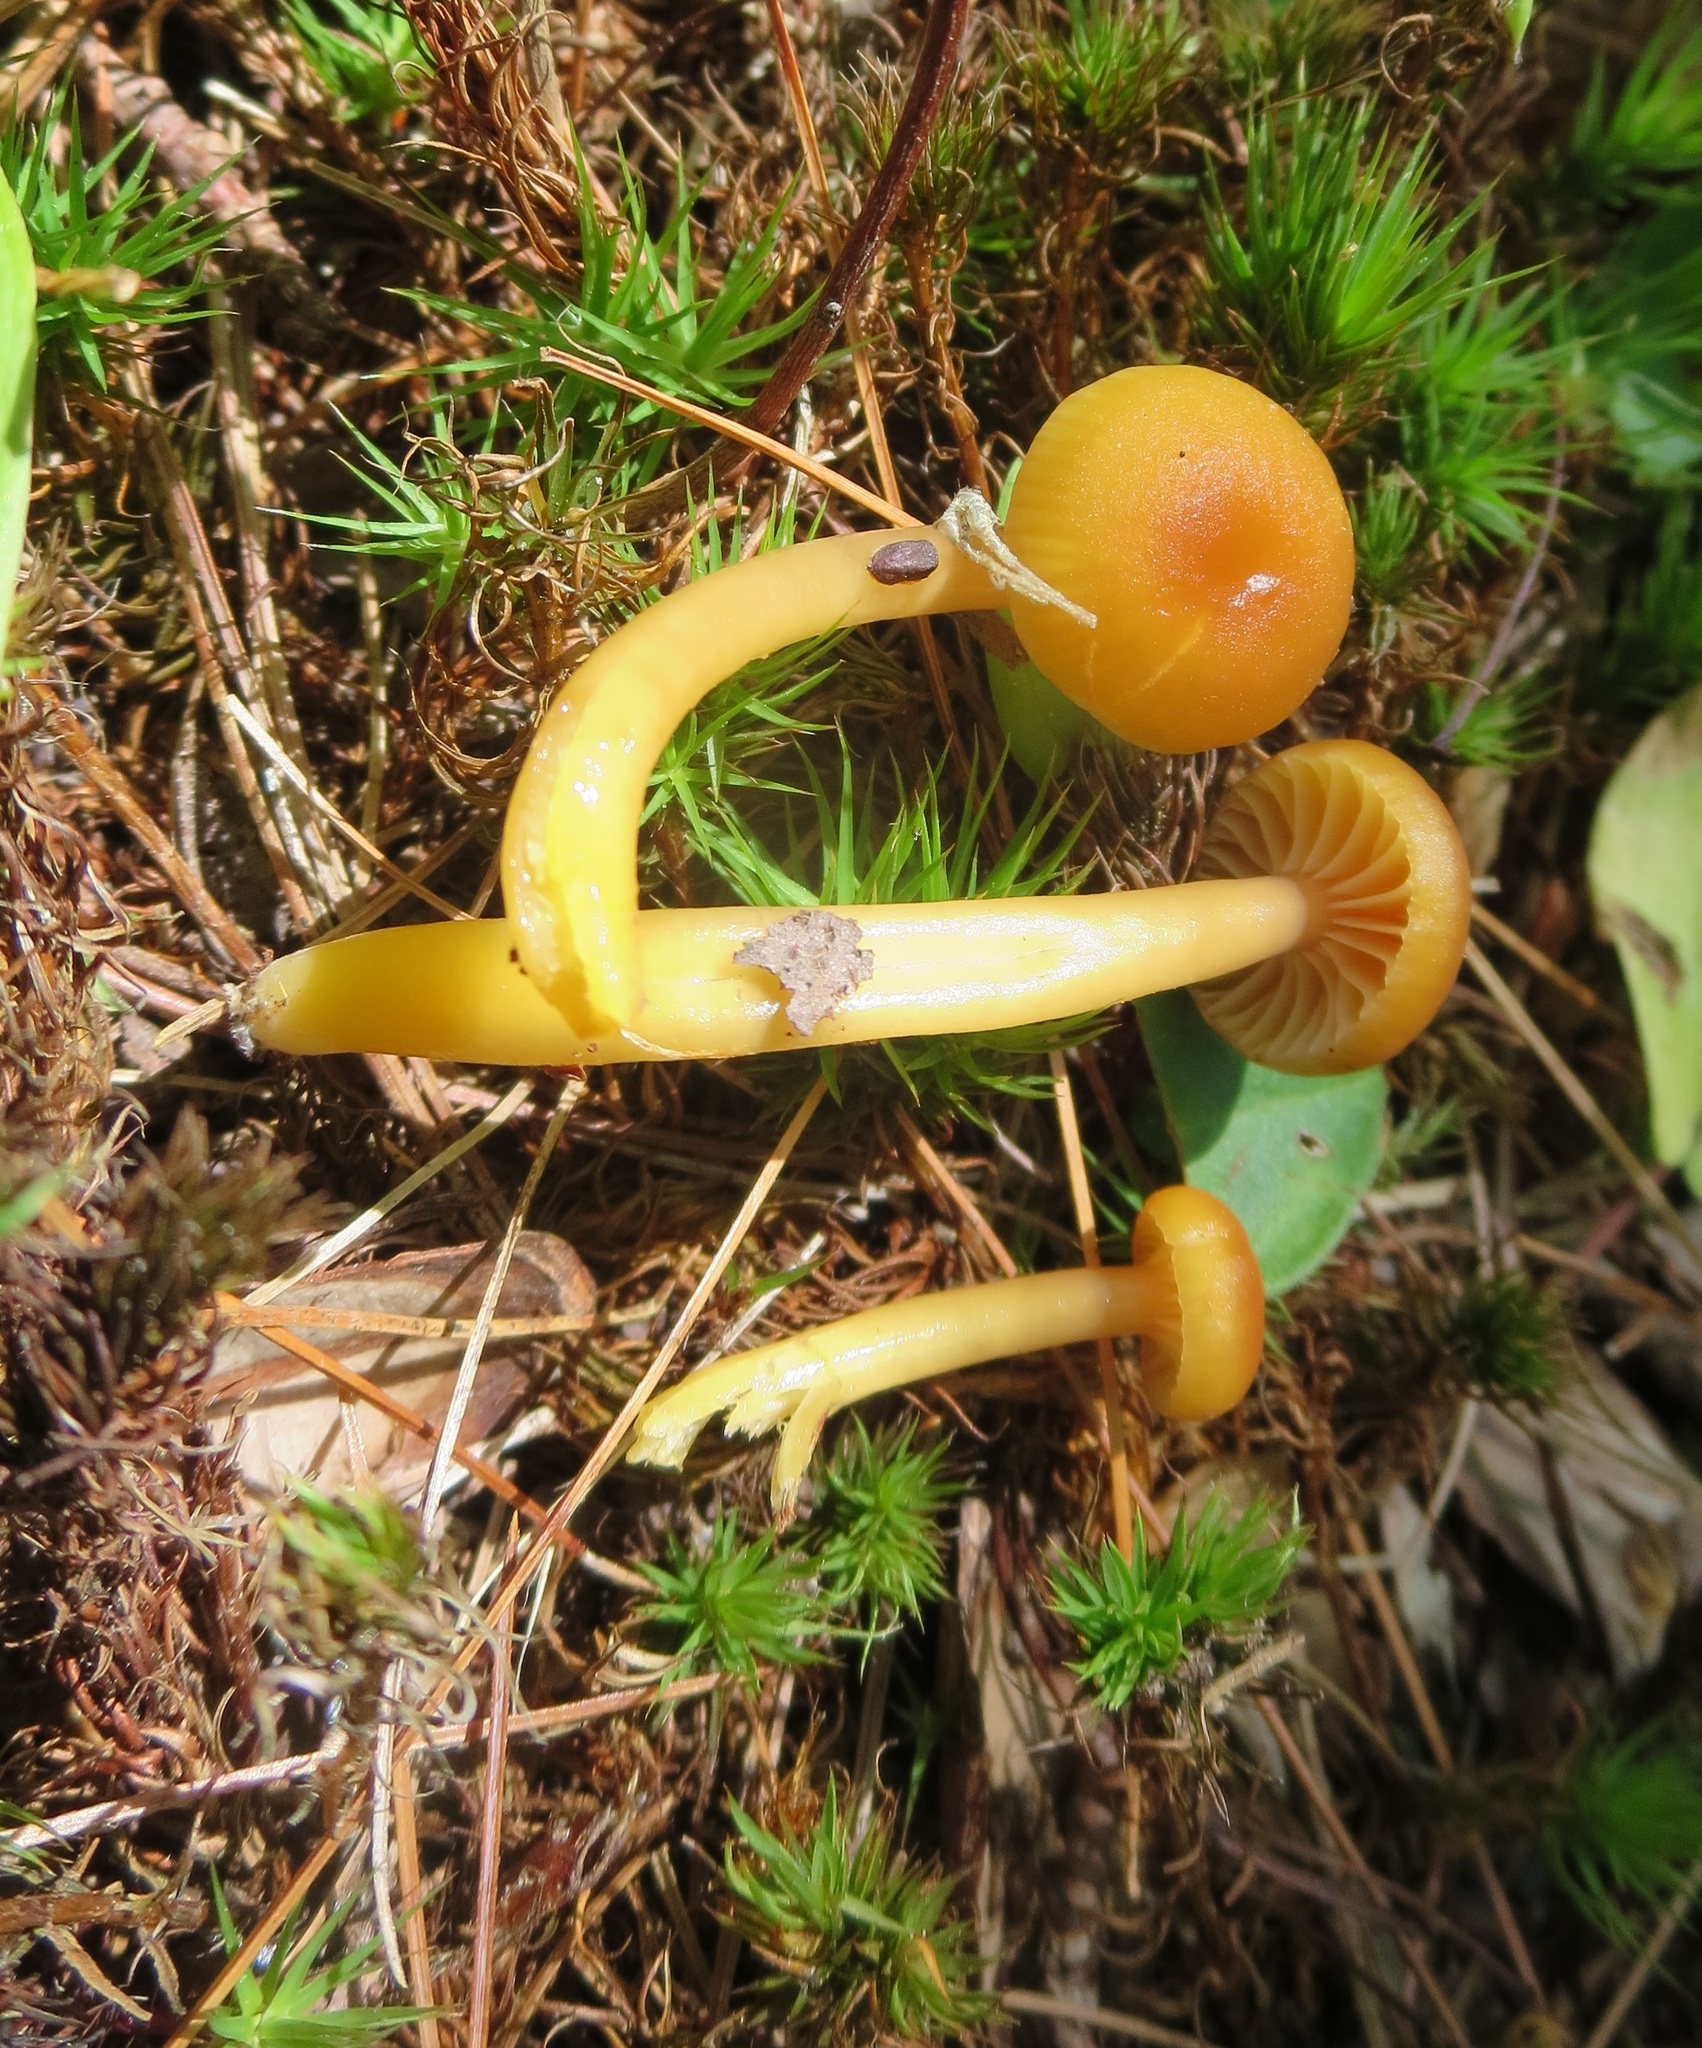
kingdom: Fungi
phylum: Basidiomycota
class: Agaricomycetes
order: Agaricales
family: Hygrophoraceae
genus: Gliophorus
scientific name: Gliophorus laetus
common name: Heath waxcap
